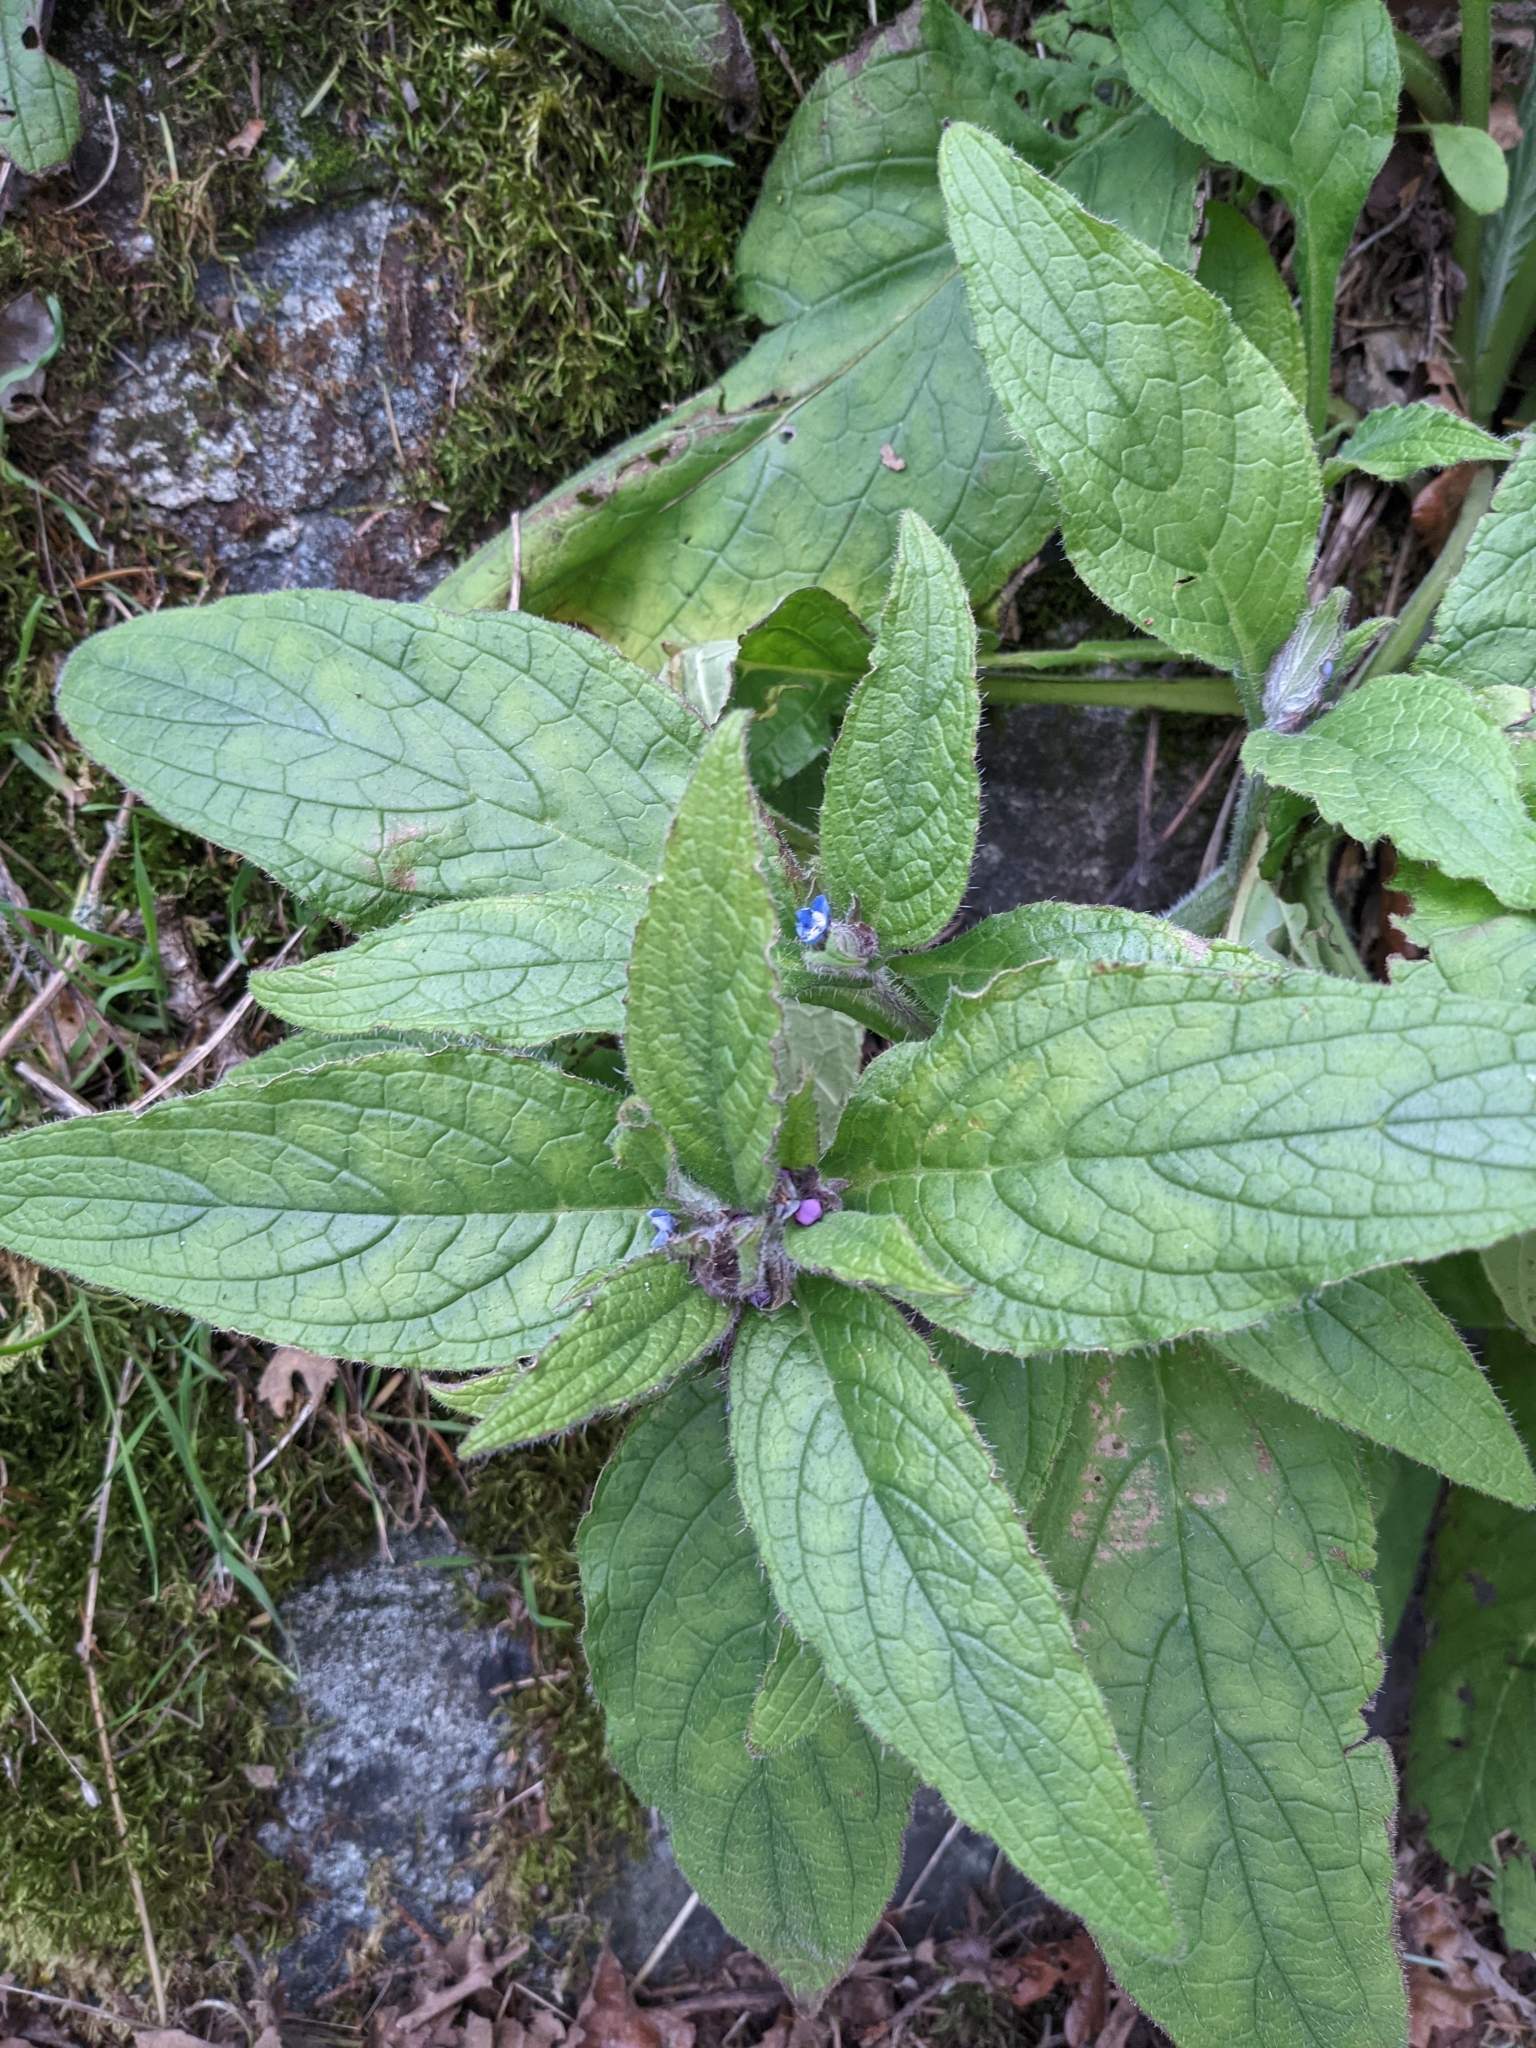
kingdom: Plantae
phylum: Tracheophyta
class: Magnoliopsida
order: Boraginales
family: Boraginaceae
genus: Pentaglottis
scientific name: Pentaglottis sempervirens
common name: Green alkanet
